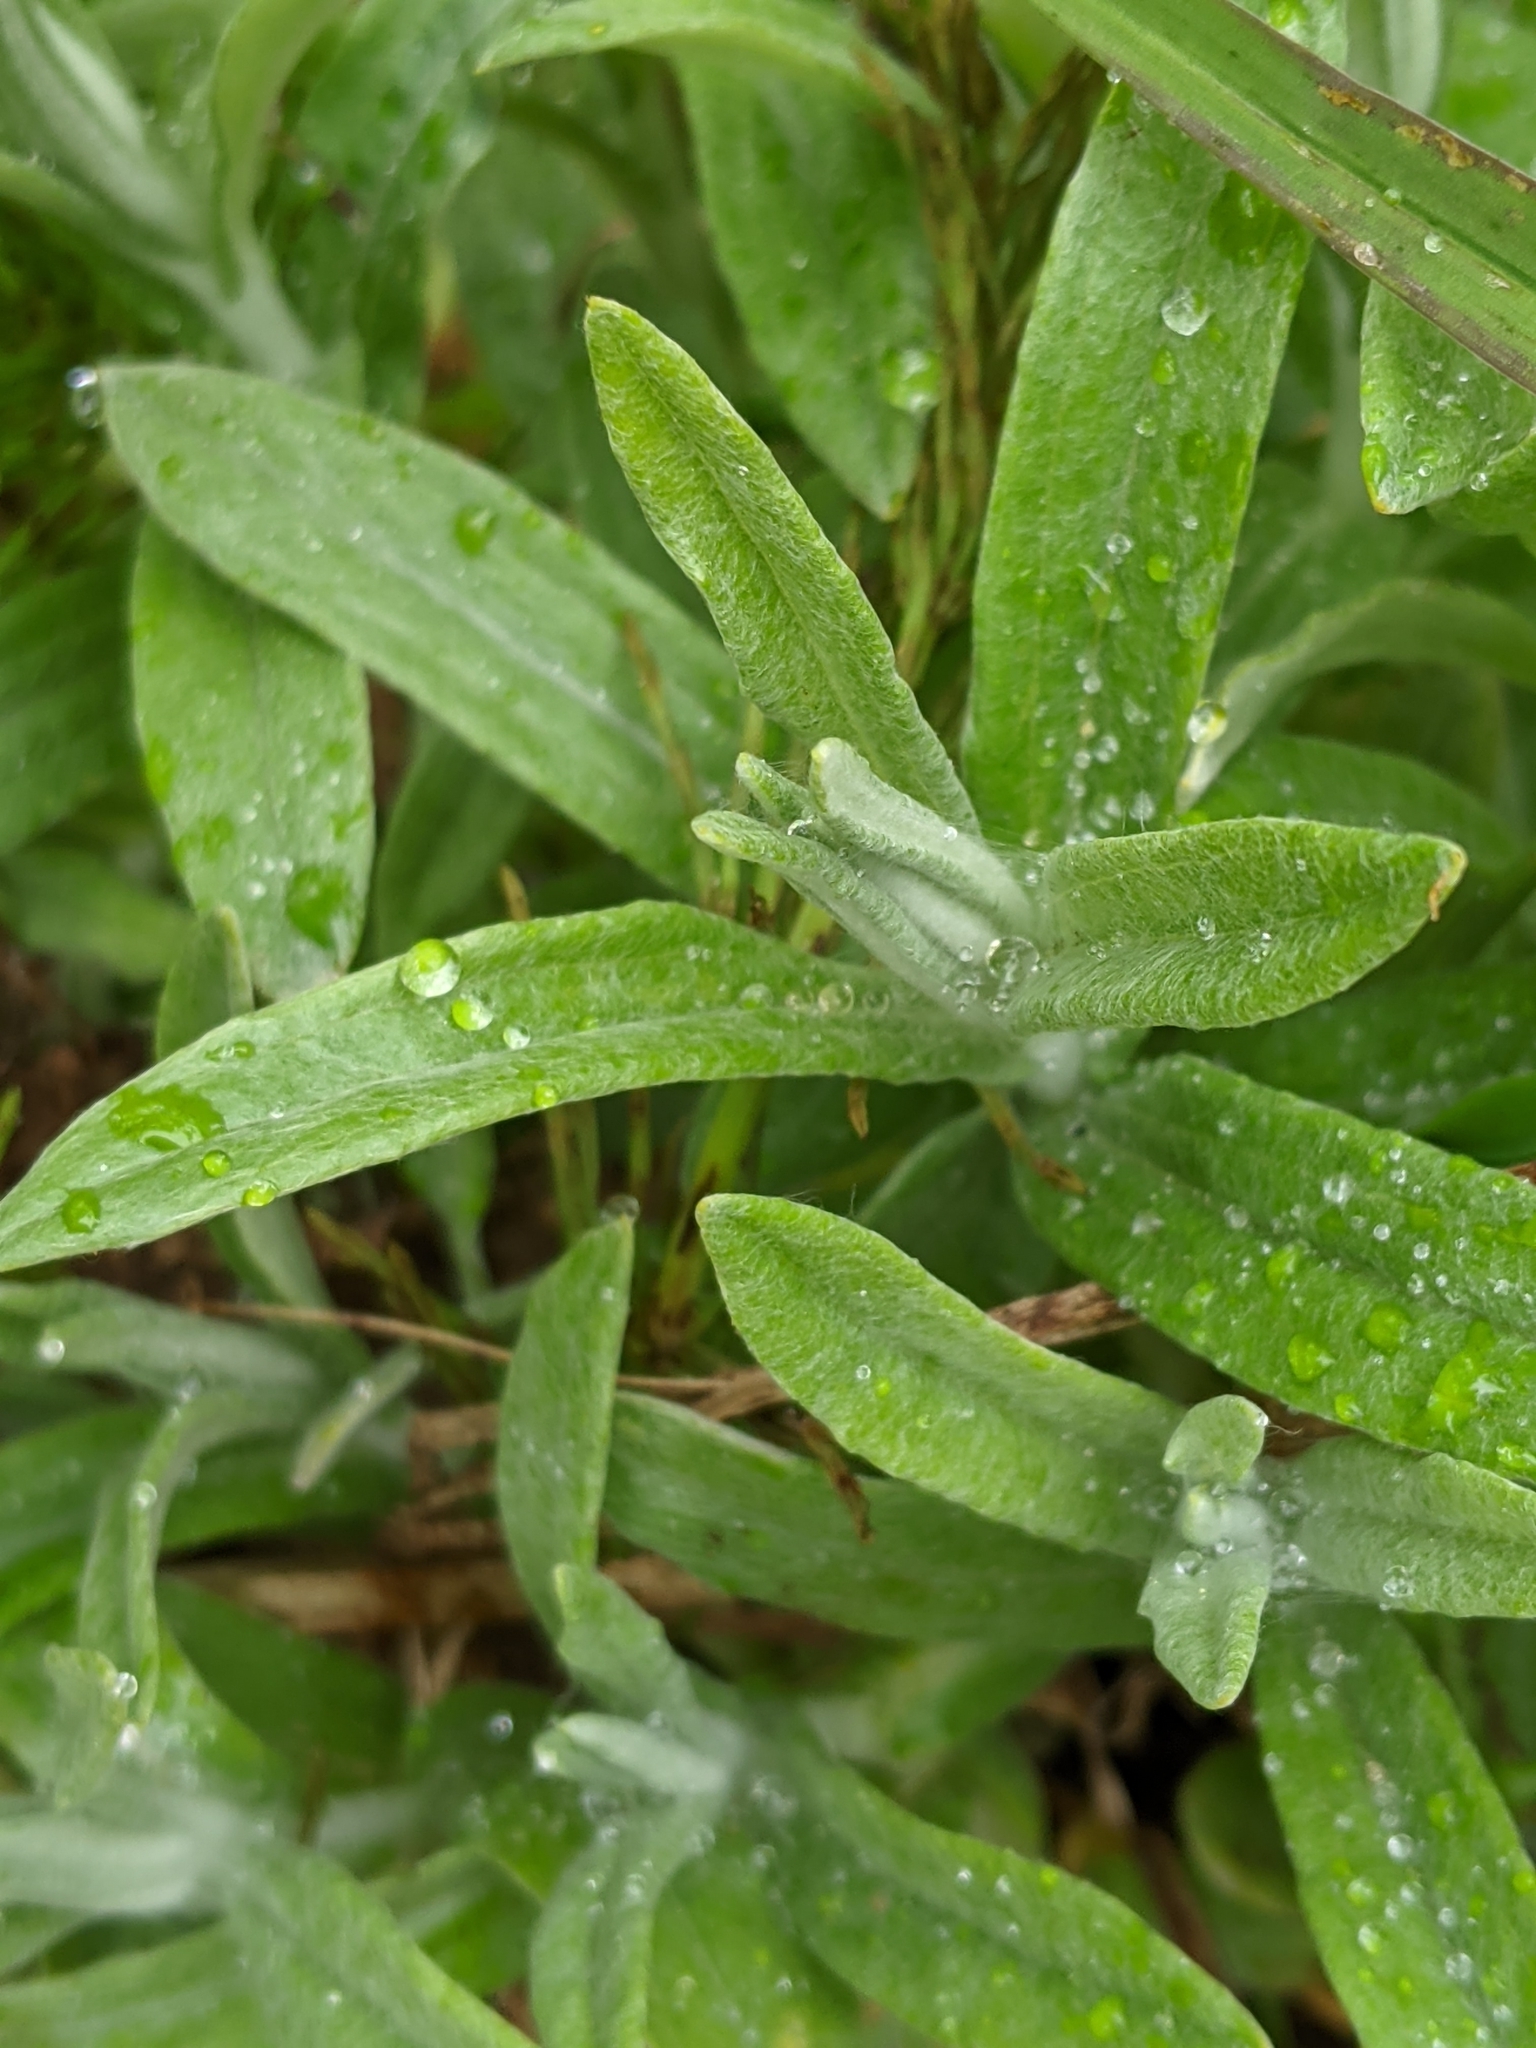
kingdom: Plantae
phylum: Tracheophyta
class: Magnoliopsida
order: Asterales
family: Asteraceae
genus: Anaphalis
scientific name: Anaphalis margaritacea
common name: Pearly everlasting
